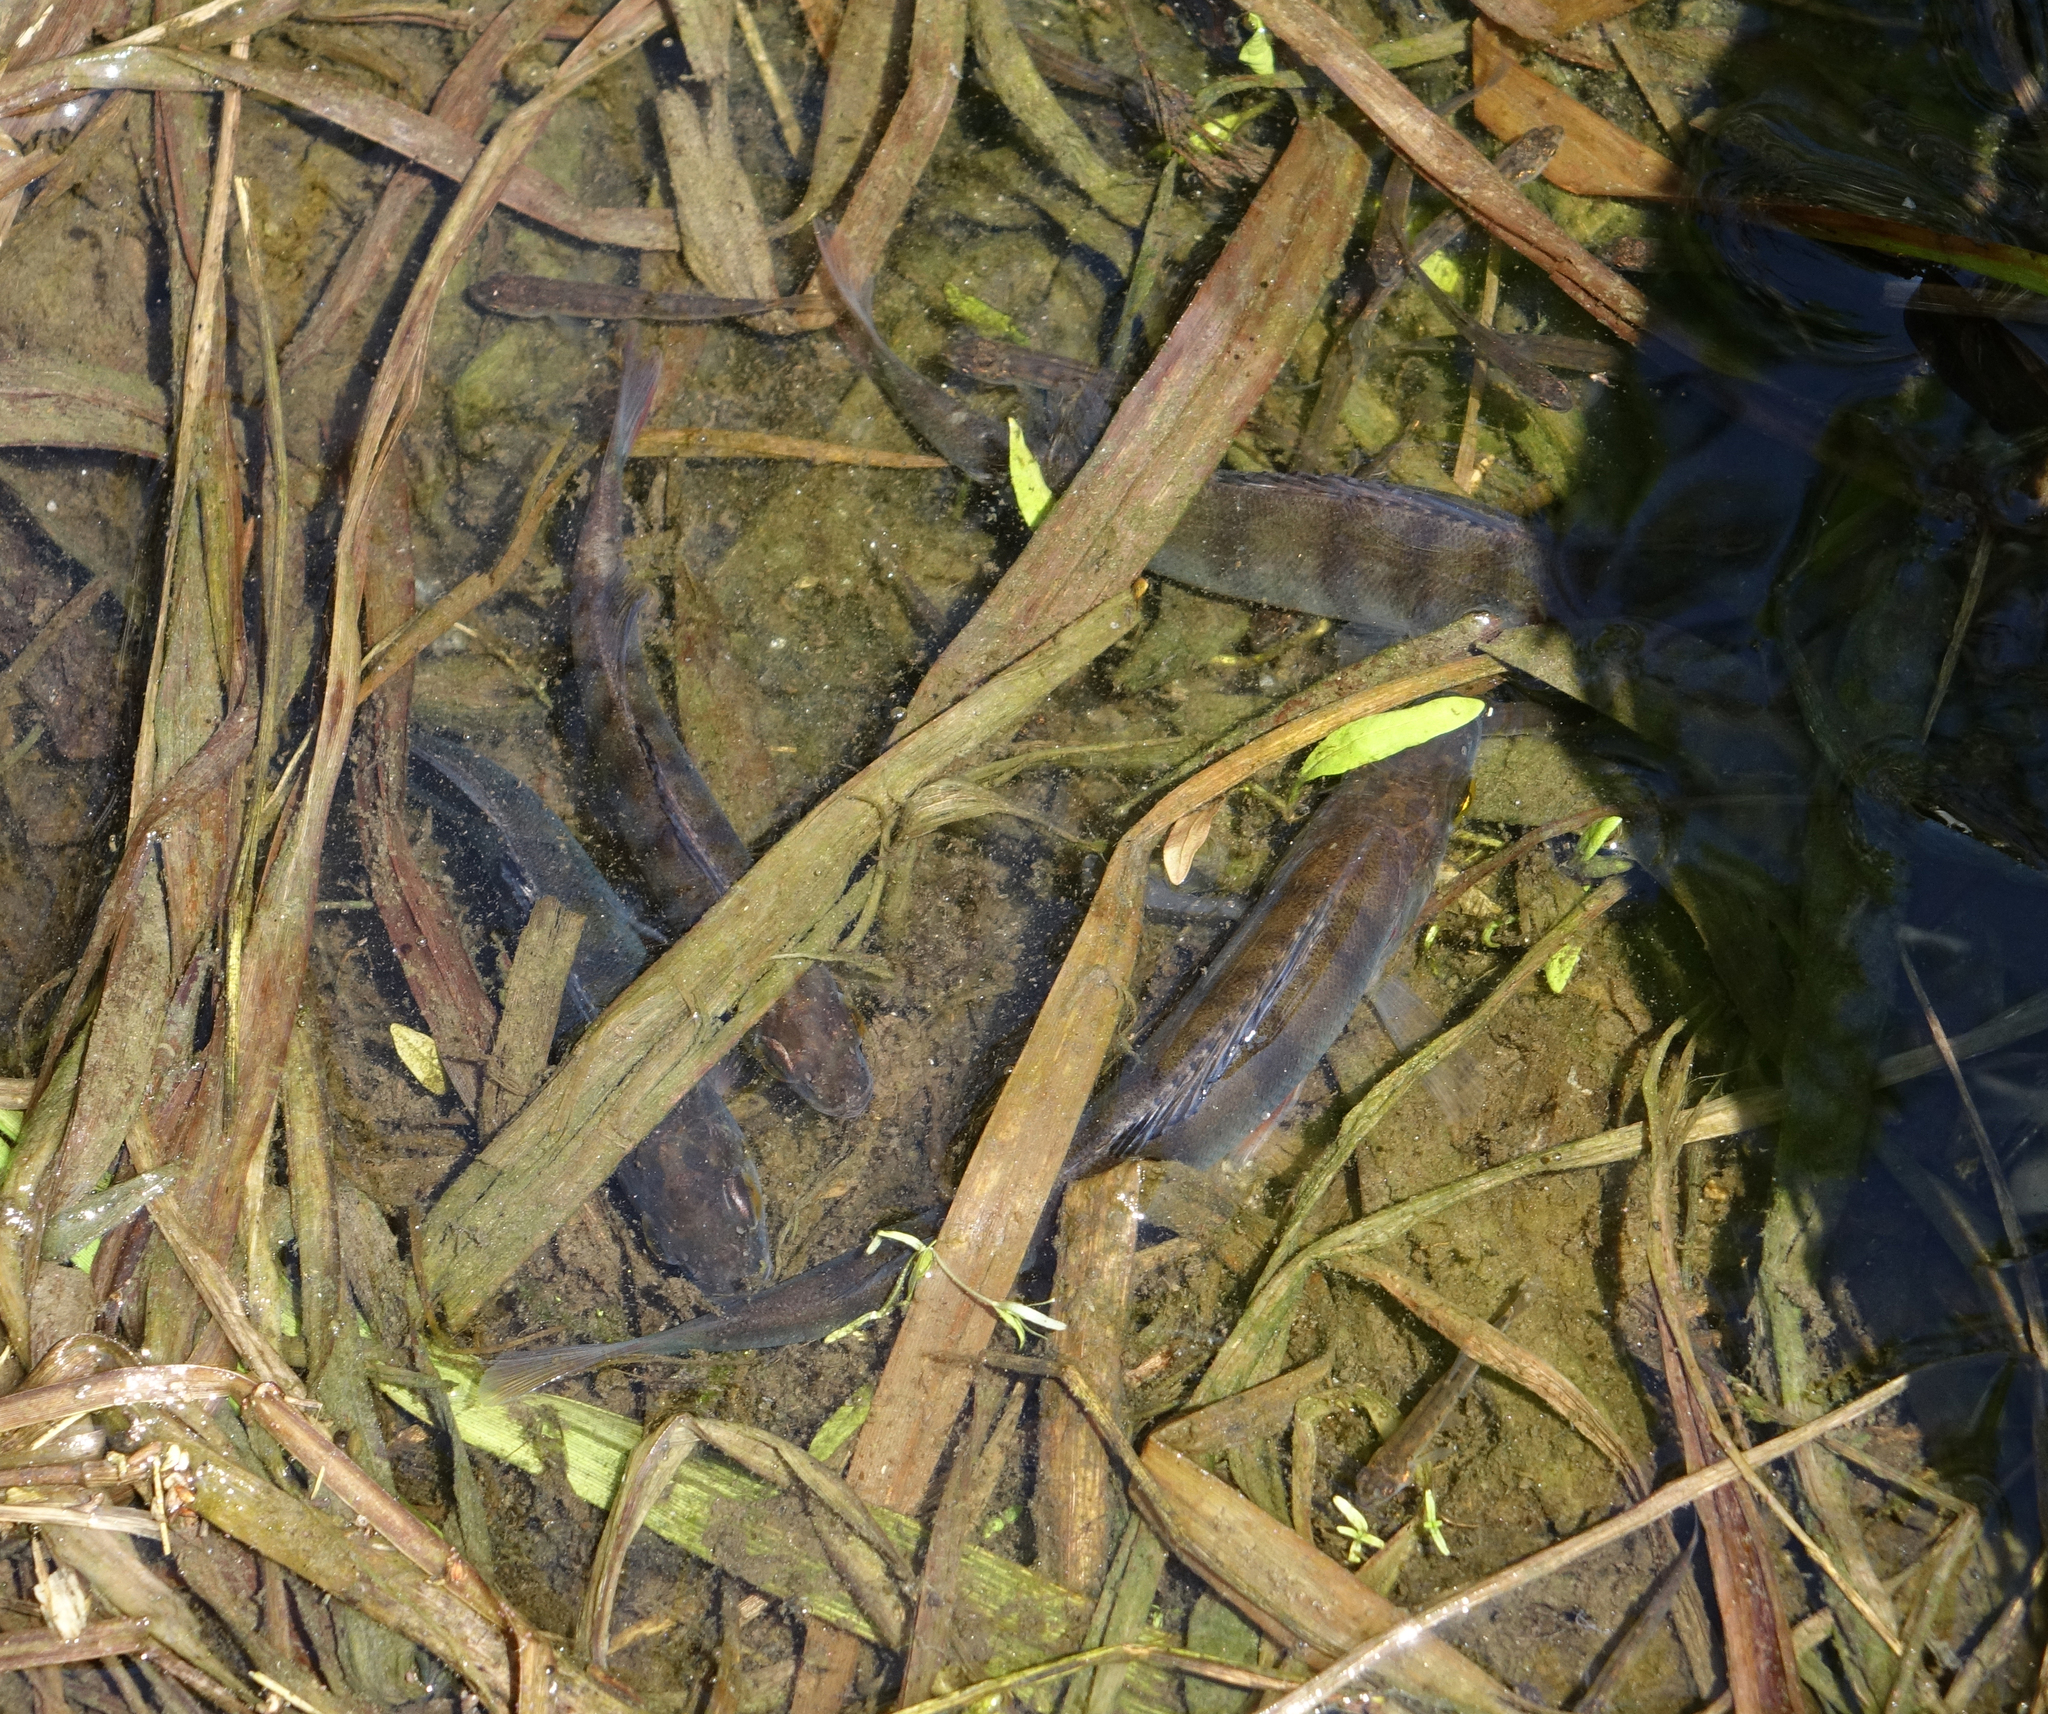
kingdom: Animalia
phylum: Chordata
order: Perciformes
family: Percidae
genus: Perca
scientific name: Perca fluviatilis
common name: Perch
